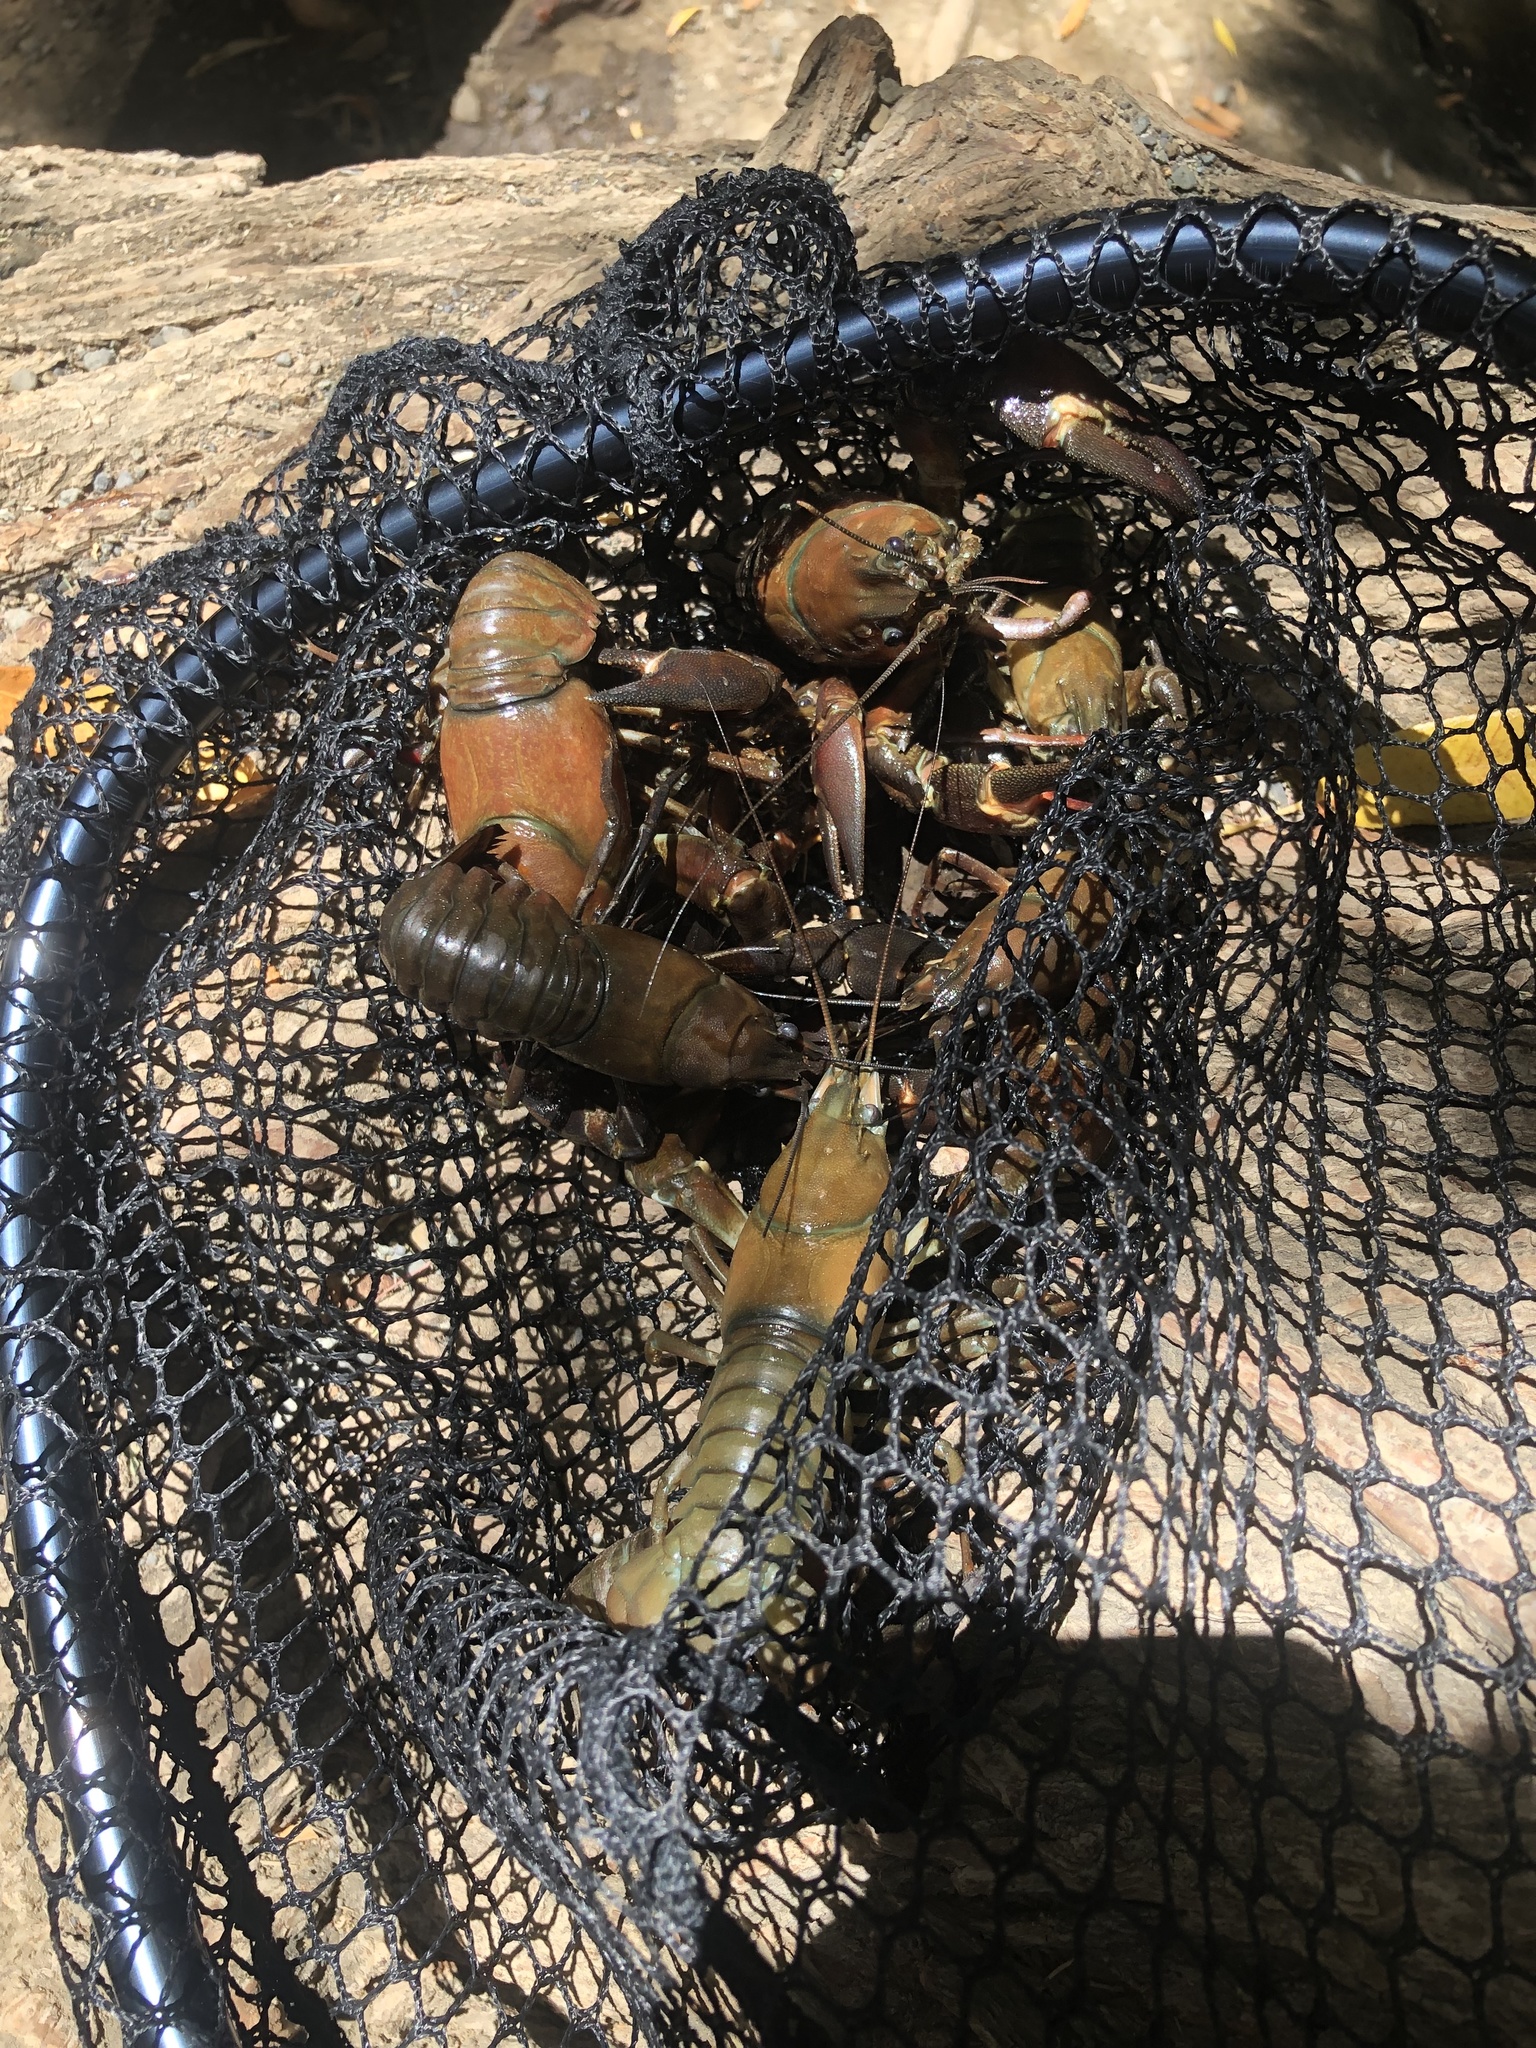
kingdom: Animalia
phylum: Arthropoda
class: Malacostraca
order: Decapoda
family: Astacidae
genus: Pacifastacus
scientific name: Pacifastacus leniusculus
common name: Signal crayfish
